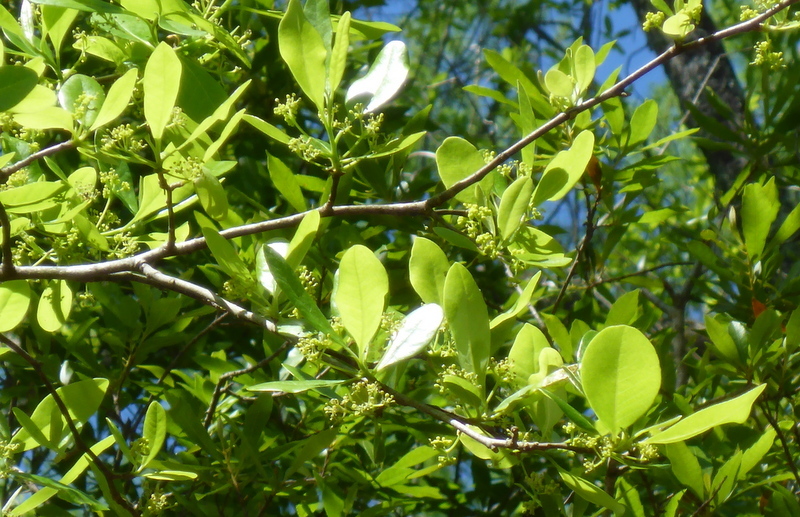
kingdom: Plantae
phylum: Tracheophyta
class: Magnoliopsida
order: Aquifoliales
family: Aquifoliaceae
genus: Ilex
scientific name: Ilex decidua
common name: Possum-haw
